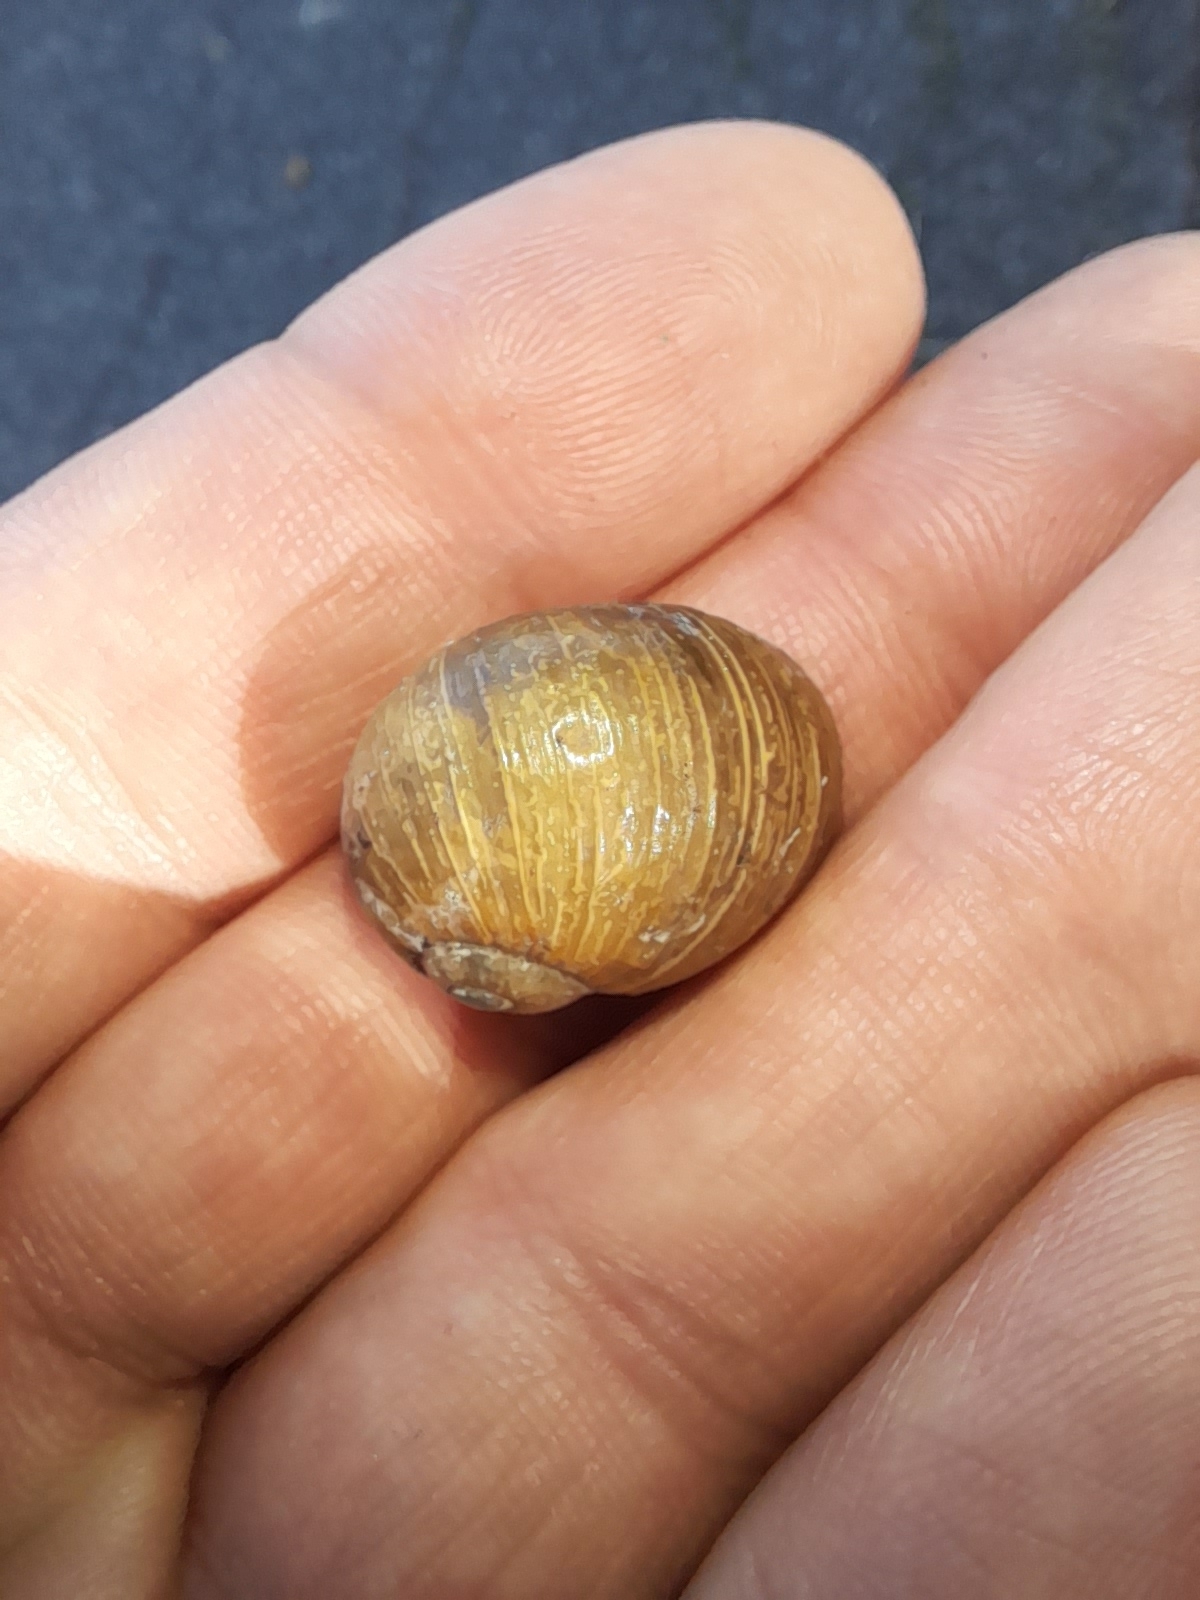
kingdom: Animalia
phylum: Mollusca
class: Gastropoda
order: Stylommatophora
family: Helicidae
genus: Cantareus
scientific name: Cantareus apertus
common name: Green gardensnail
